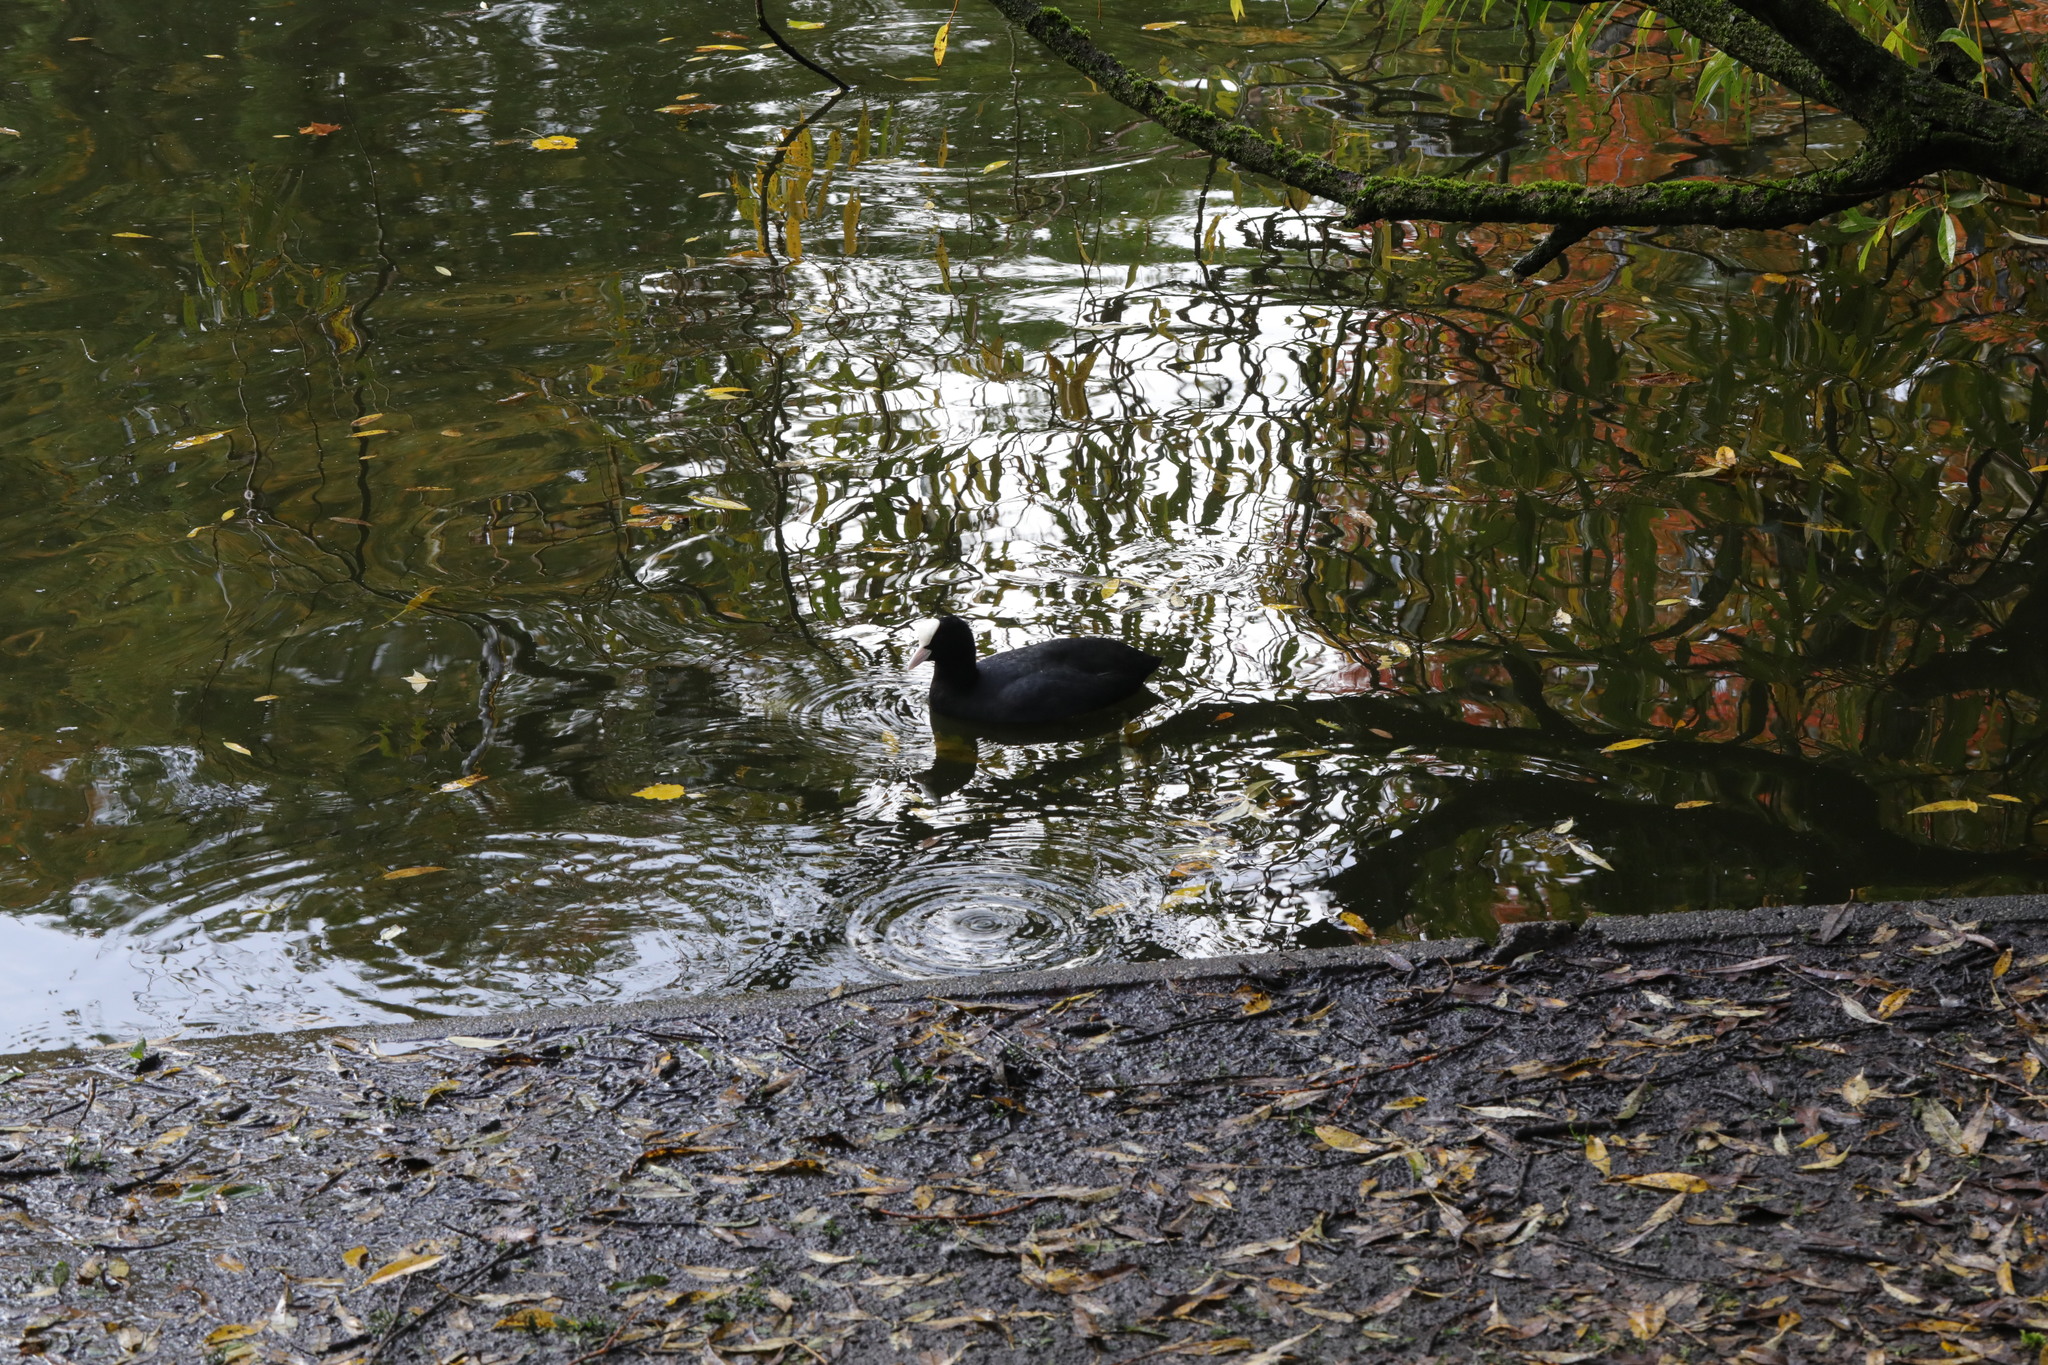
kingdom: Animalia
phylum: Chordata
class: Aves
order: Gruiformes
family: Rallidae
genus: Fulica
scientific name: Fulica atra
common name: Eurasian coot
